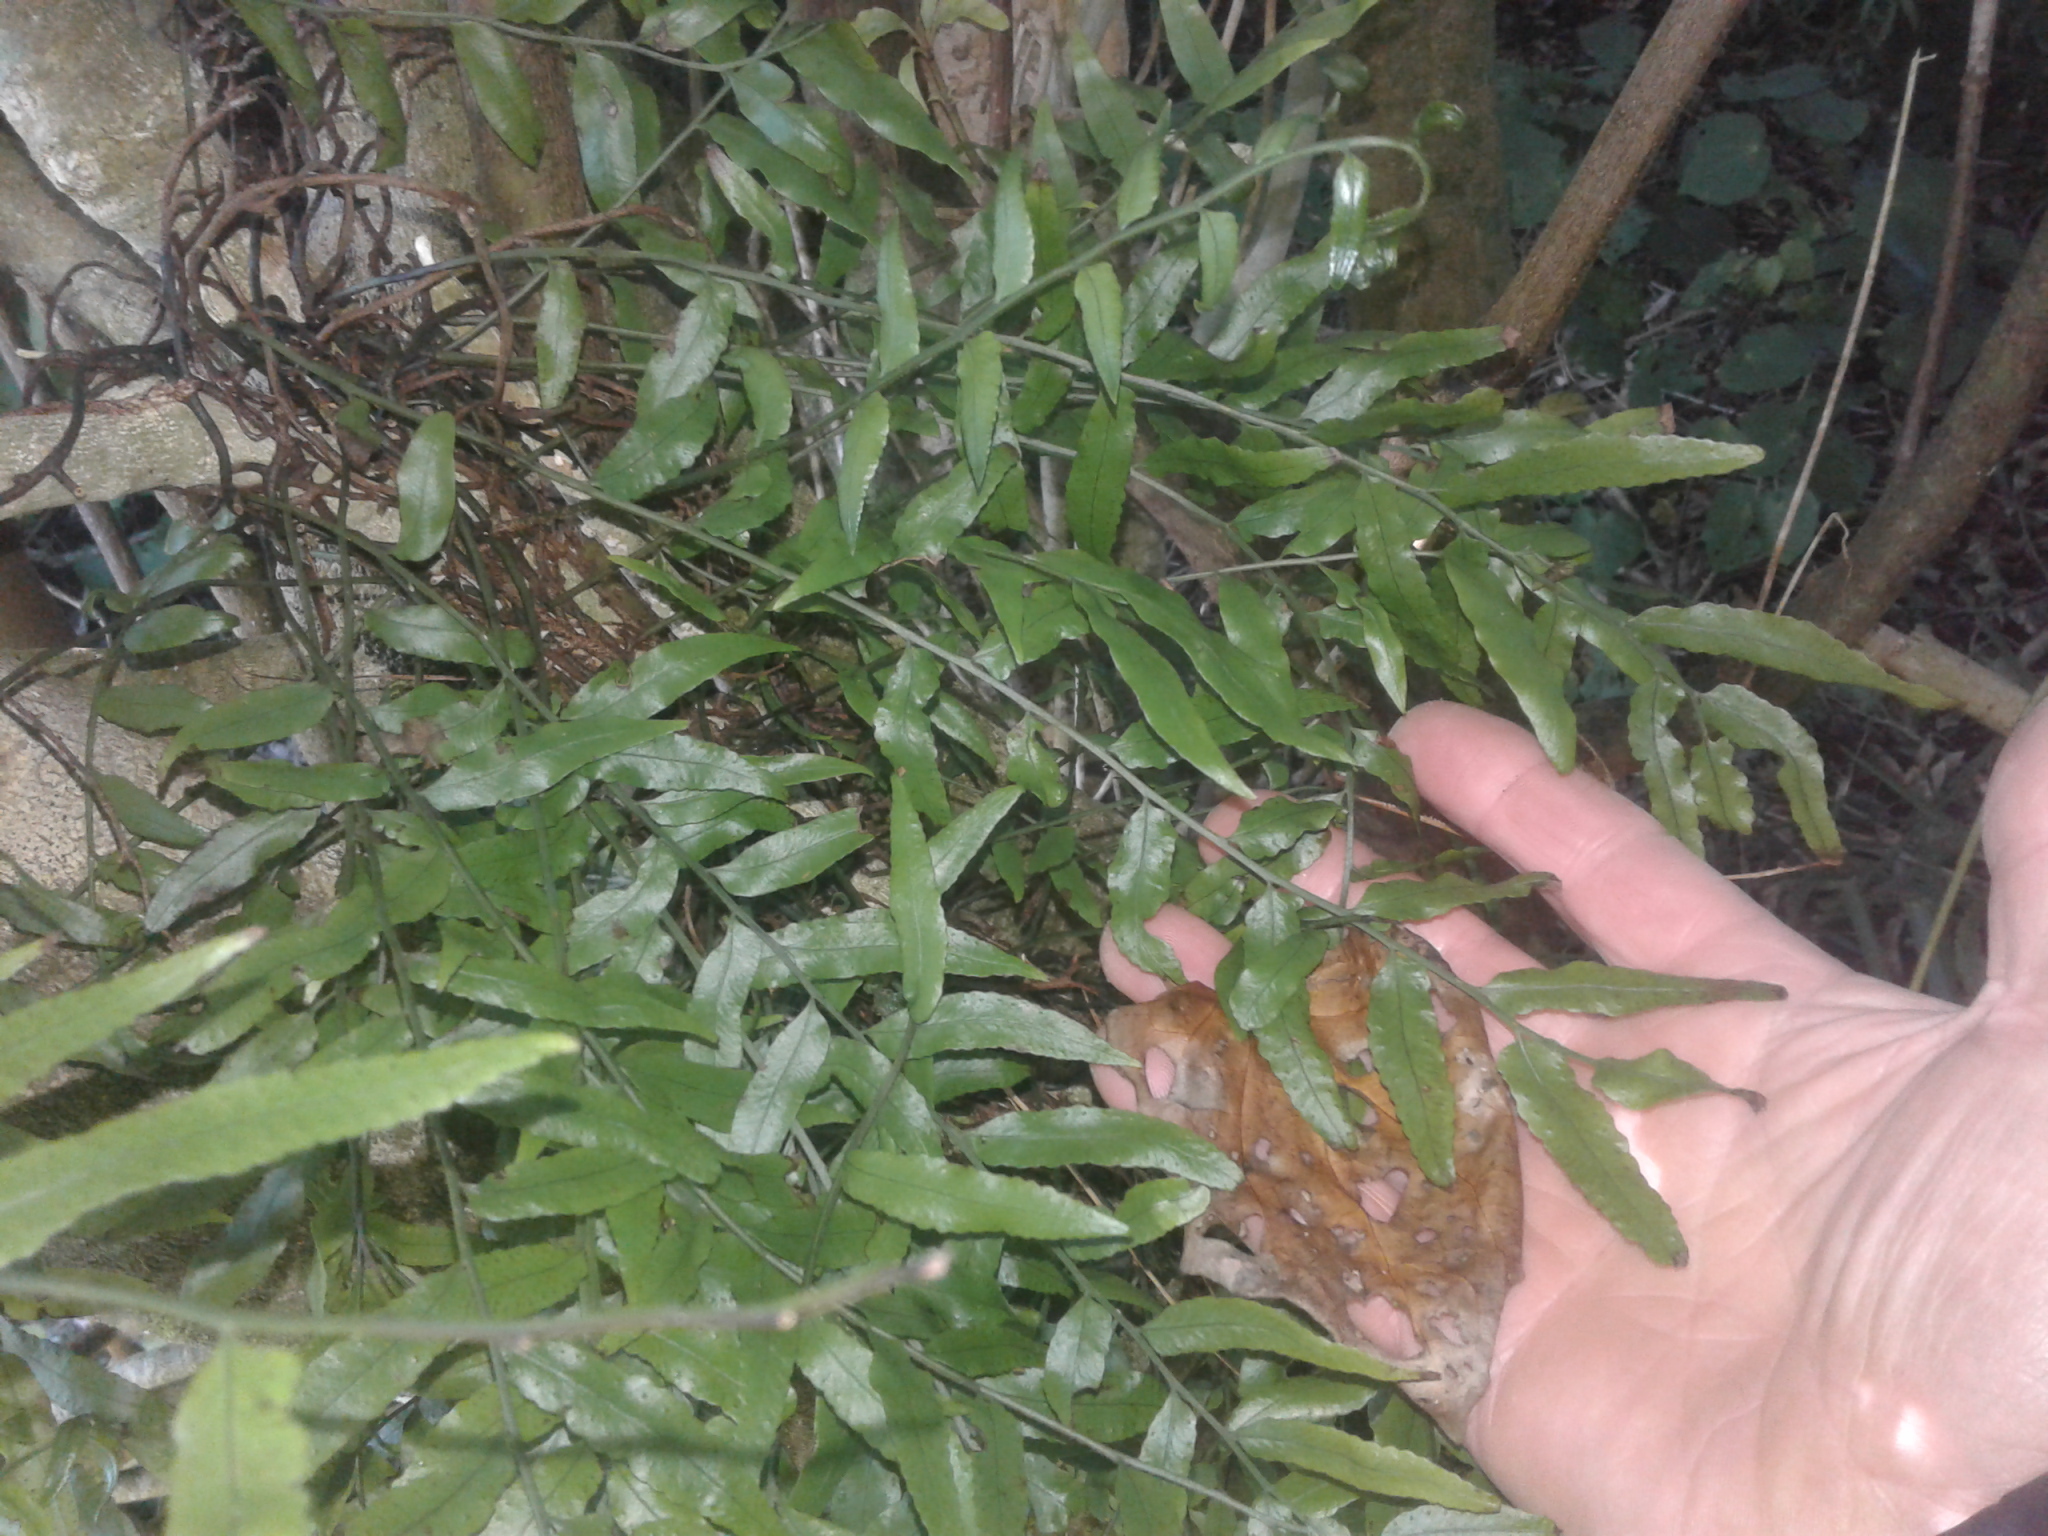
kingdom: Plantae
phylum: Tracheophyta
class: Polypodiopsida
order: Polypodiales
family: Tectariaceae
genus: Arthropteris
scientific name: Arthropteris tenella
